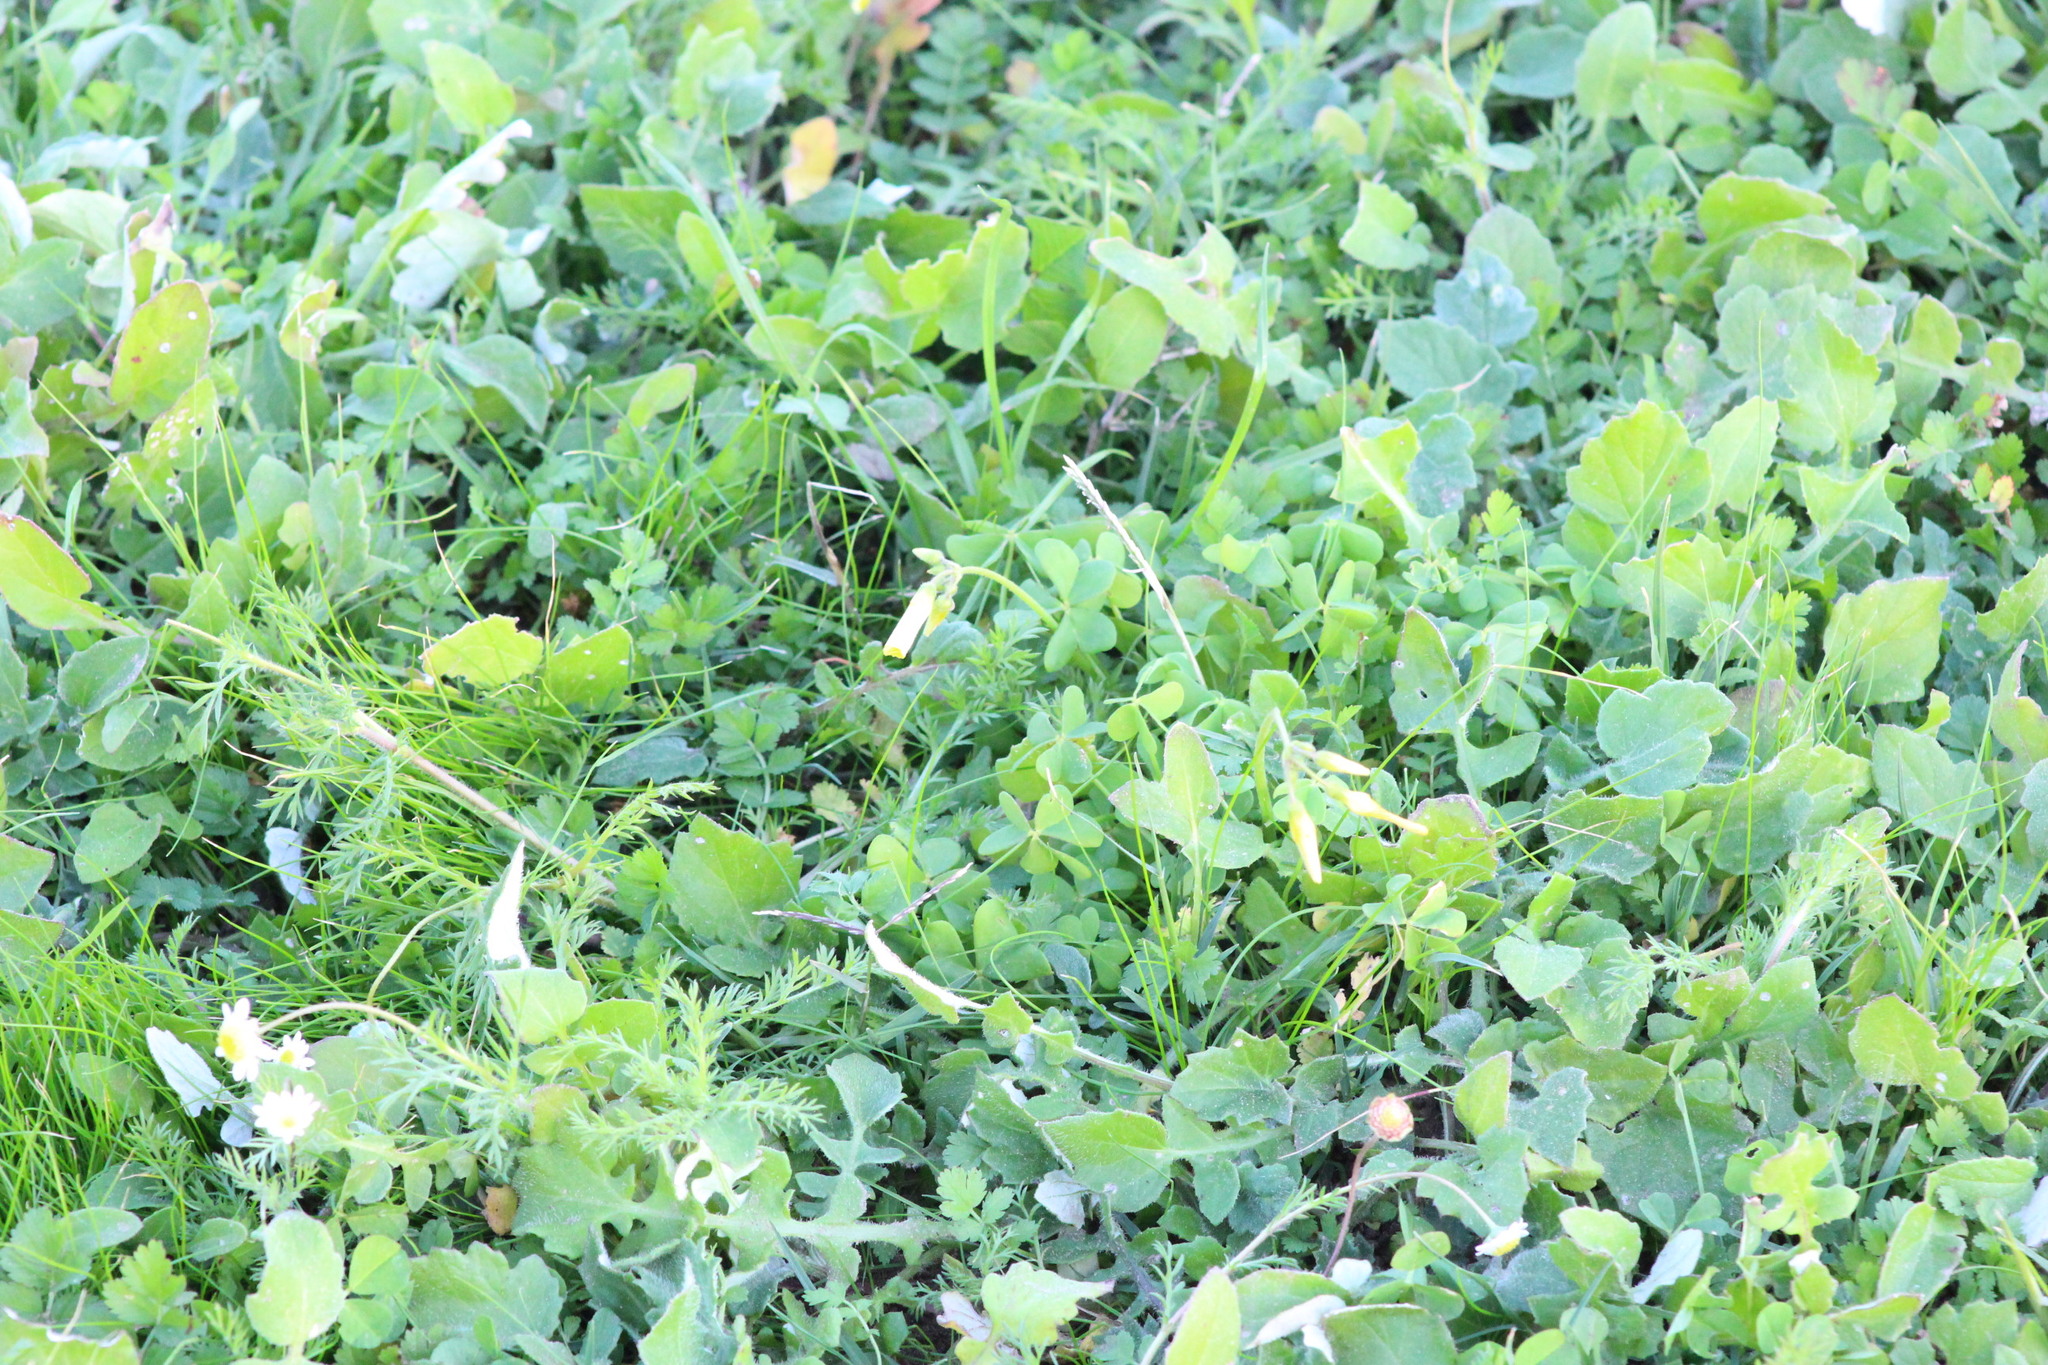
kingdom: Plantae
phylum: Tracheophyta
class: Magnoliopsida
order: Oxalidales
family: Oxalidaceae
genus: Oxalis
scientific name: Oxalis pes-caprae
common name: Bermuda-buttercup
